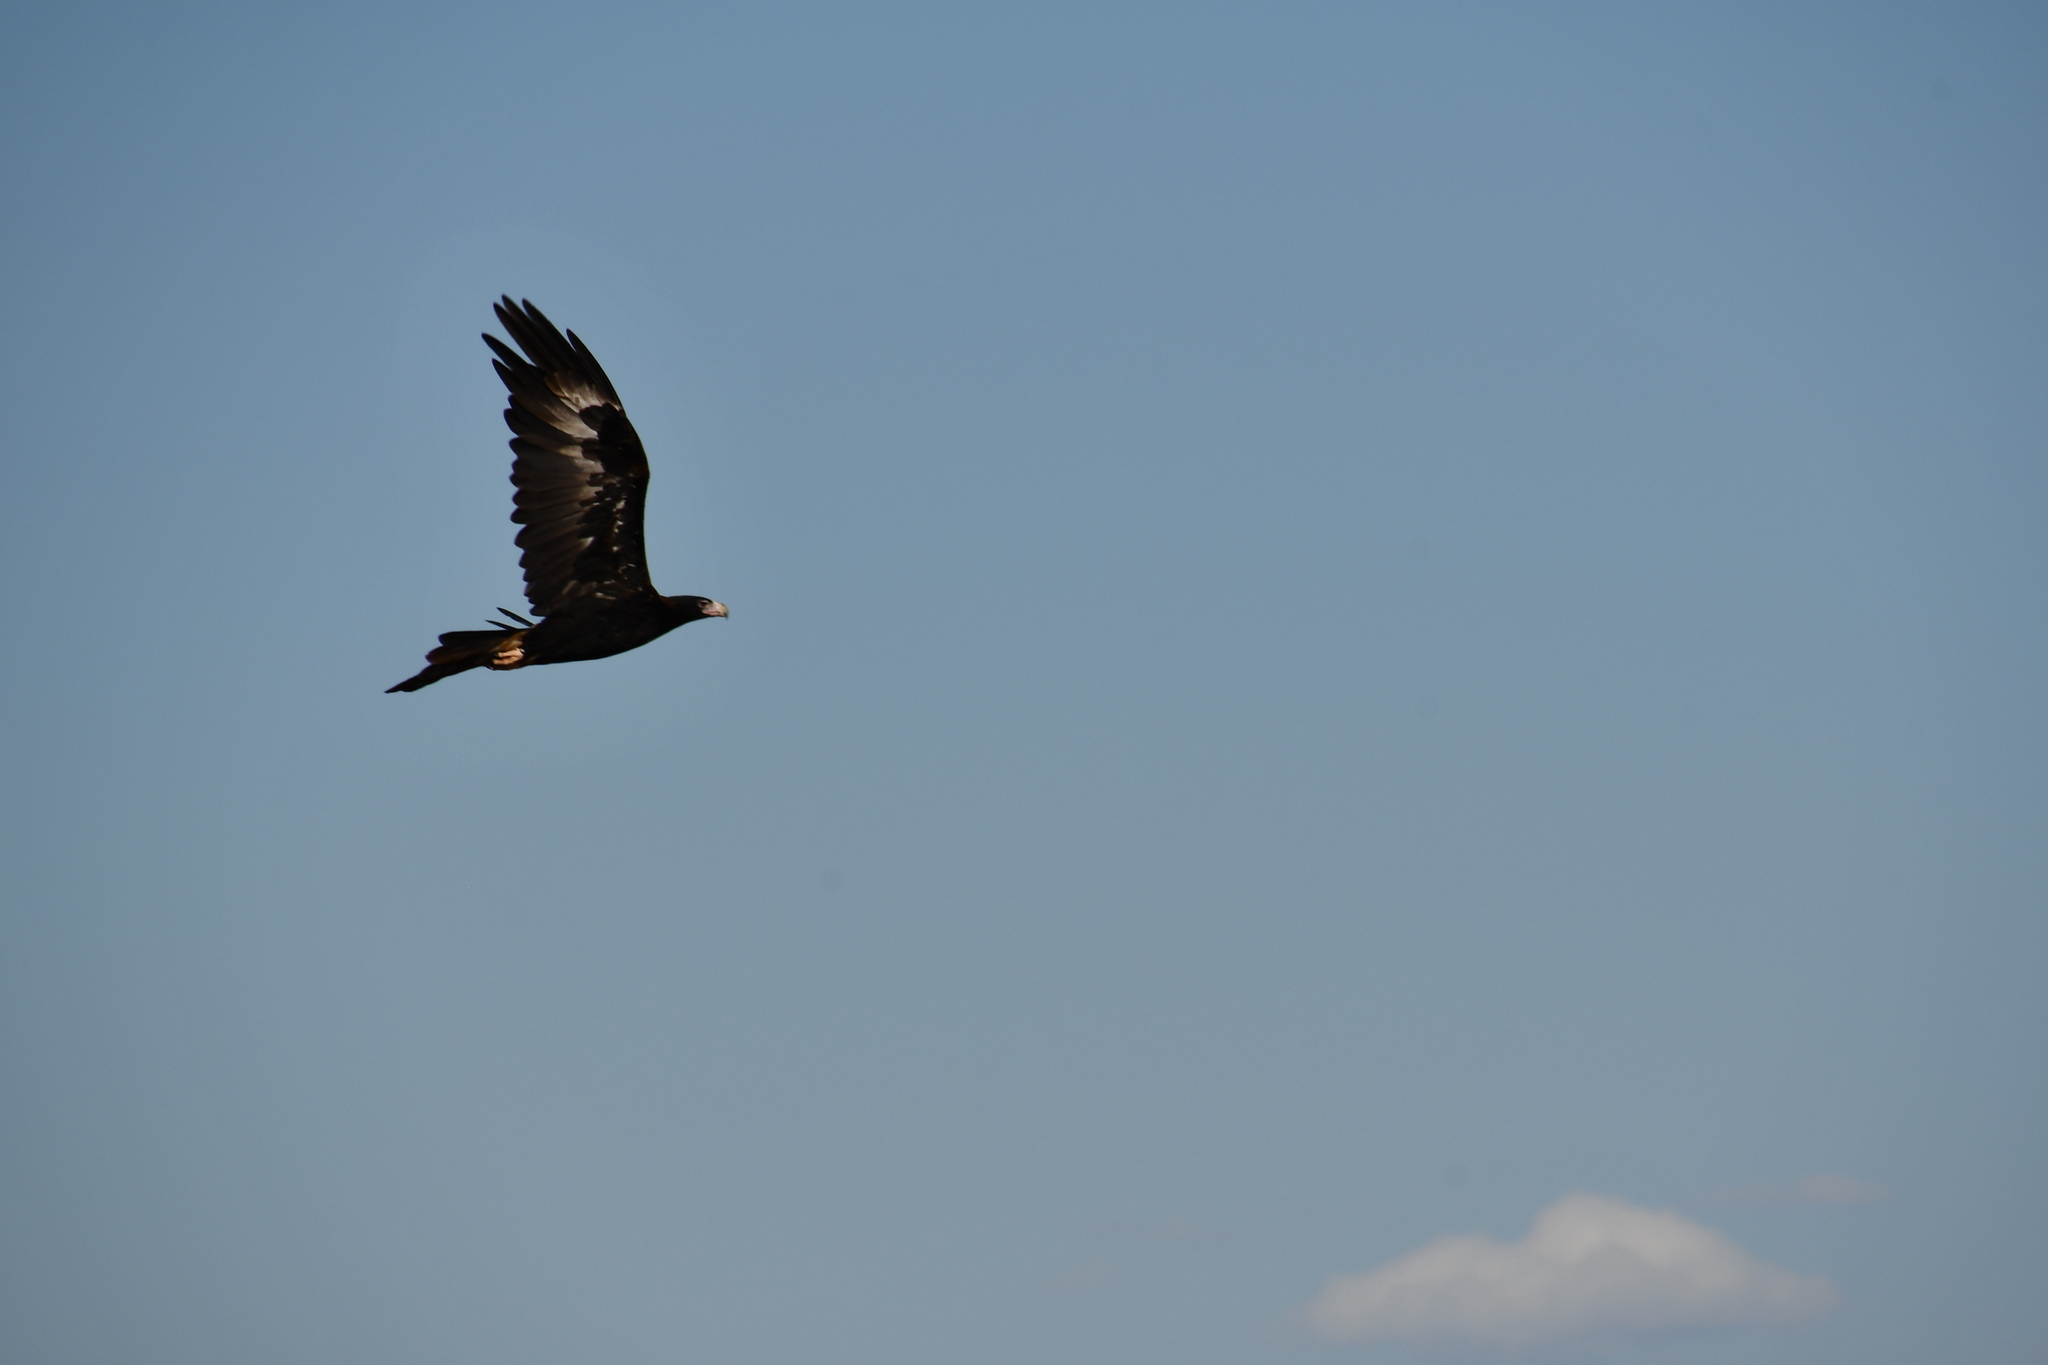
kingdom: Animalia
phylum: Chordata
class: Aves
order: Accipitriformes
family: Accipitridae
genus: Aquila
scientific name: Aquila audax
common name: Wedge-tailed eagle
